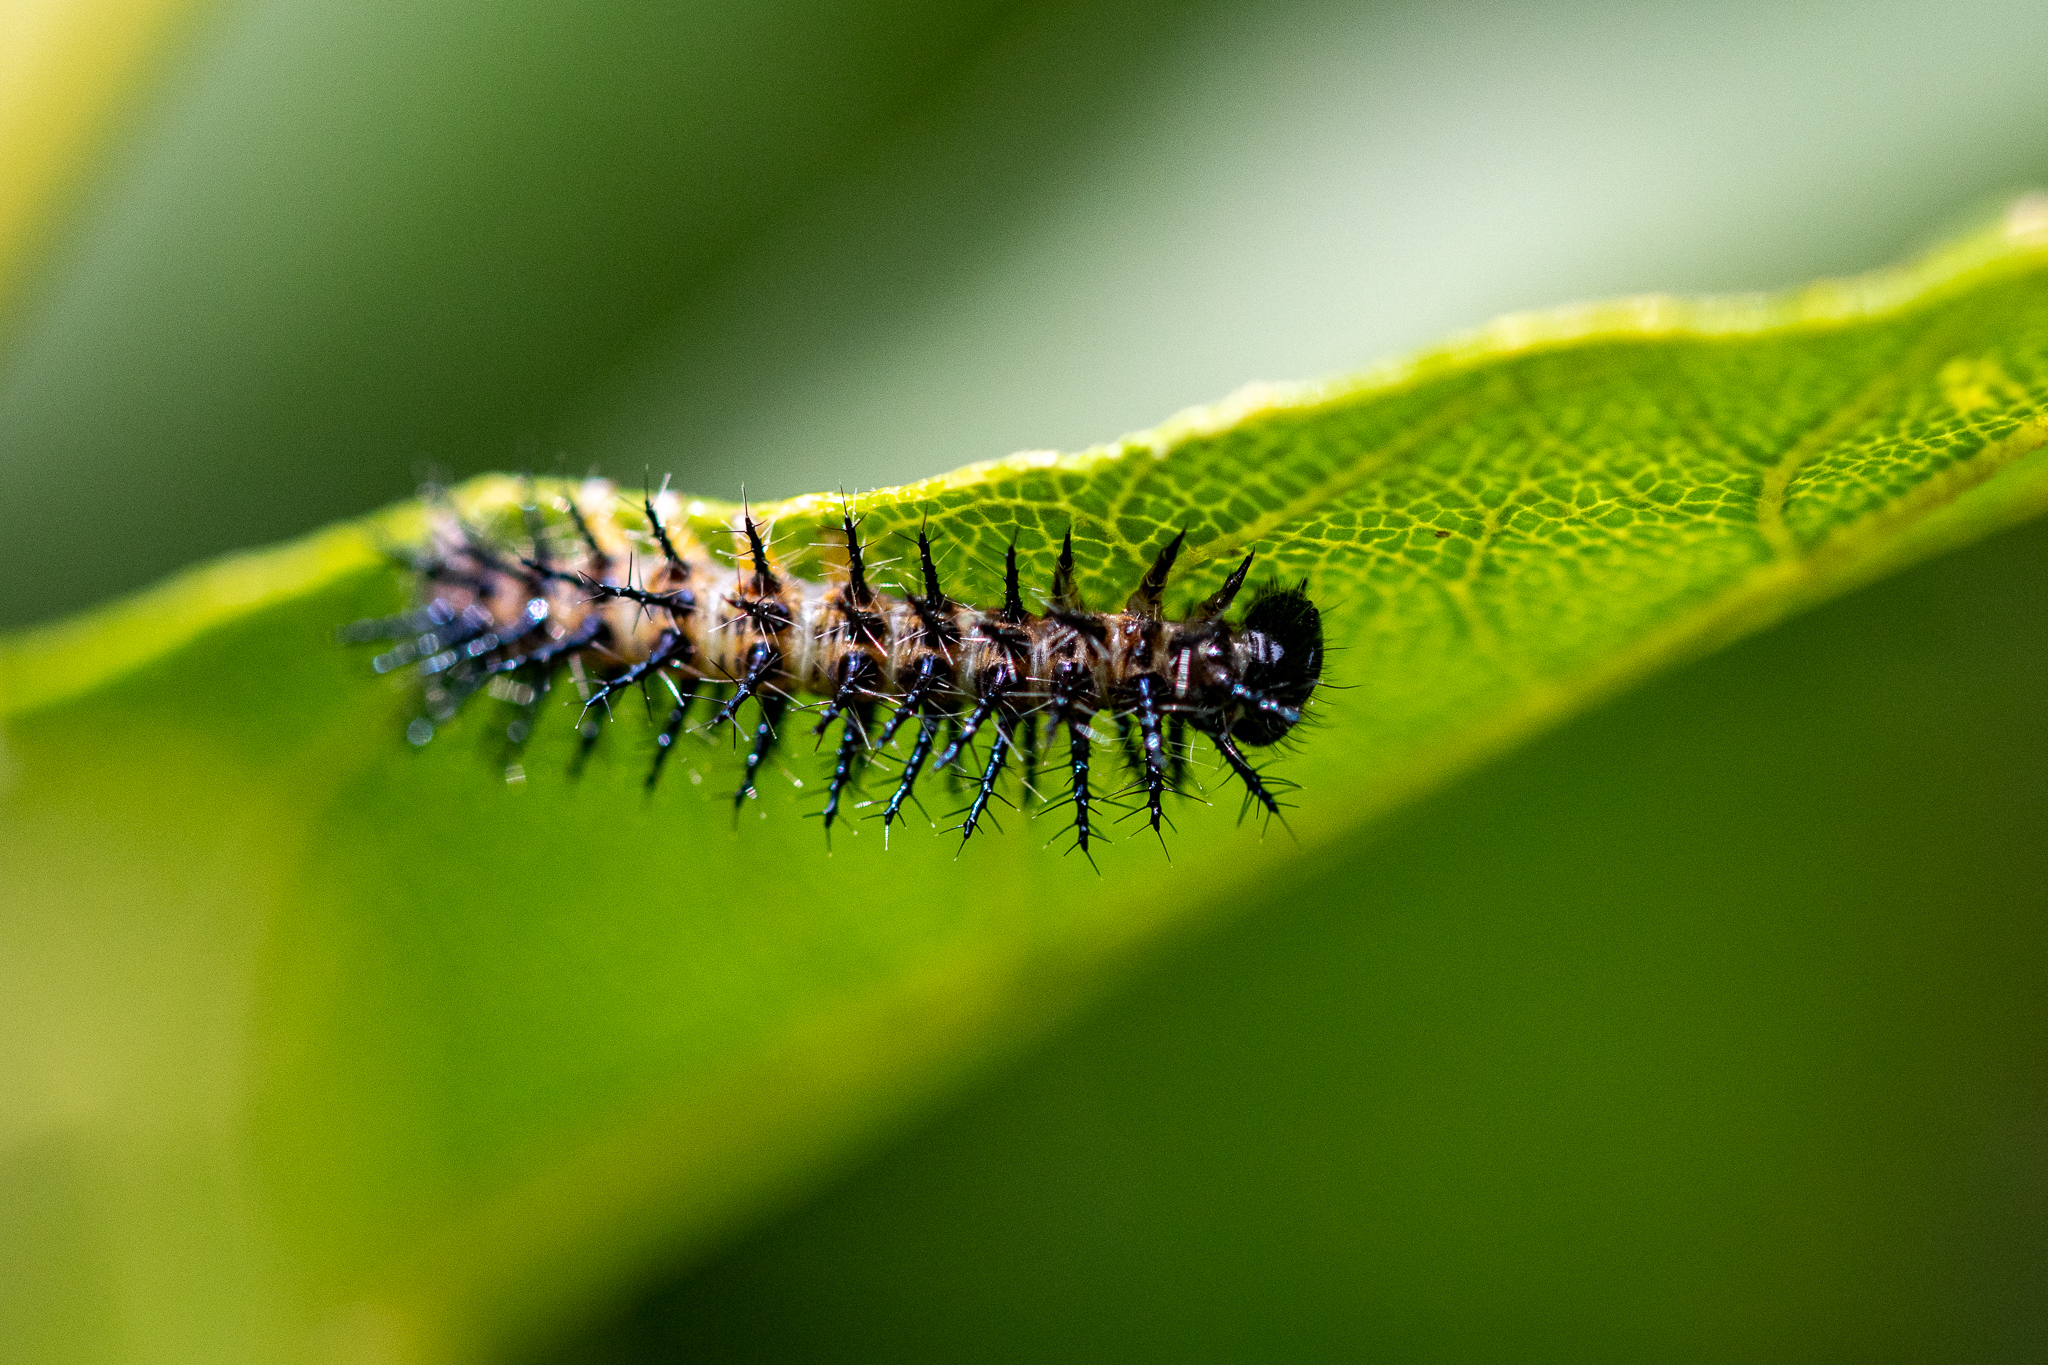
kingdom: Animalia
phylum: Arthropoda
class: Insecta
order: Lepidoptera
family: Nymphalidae
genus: Acraea
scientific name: Acraea horta
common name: Garden acraea
